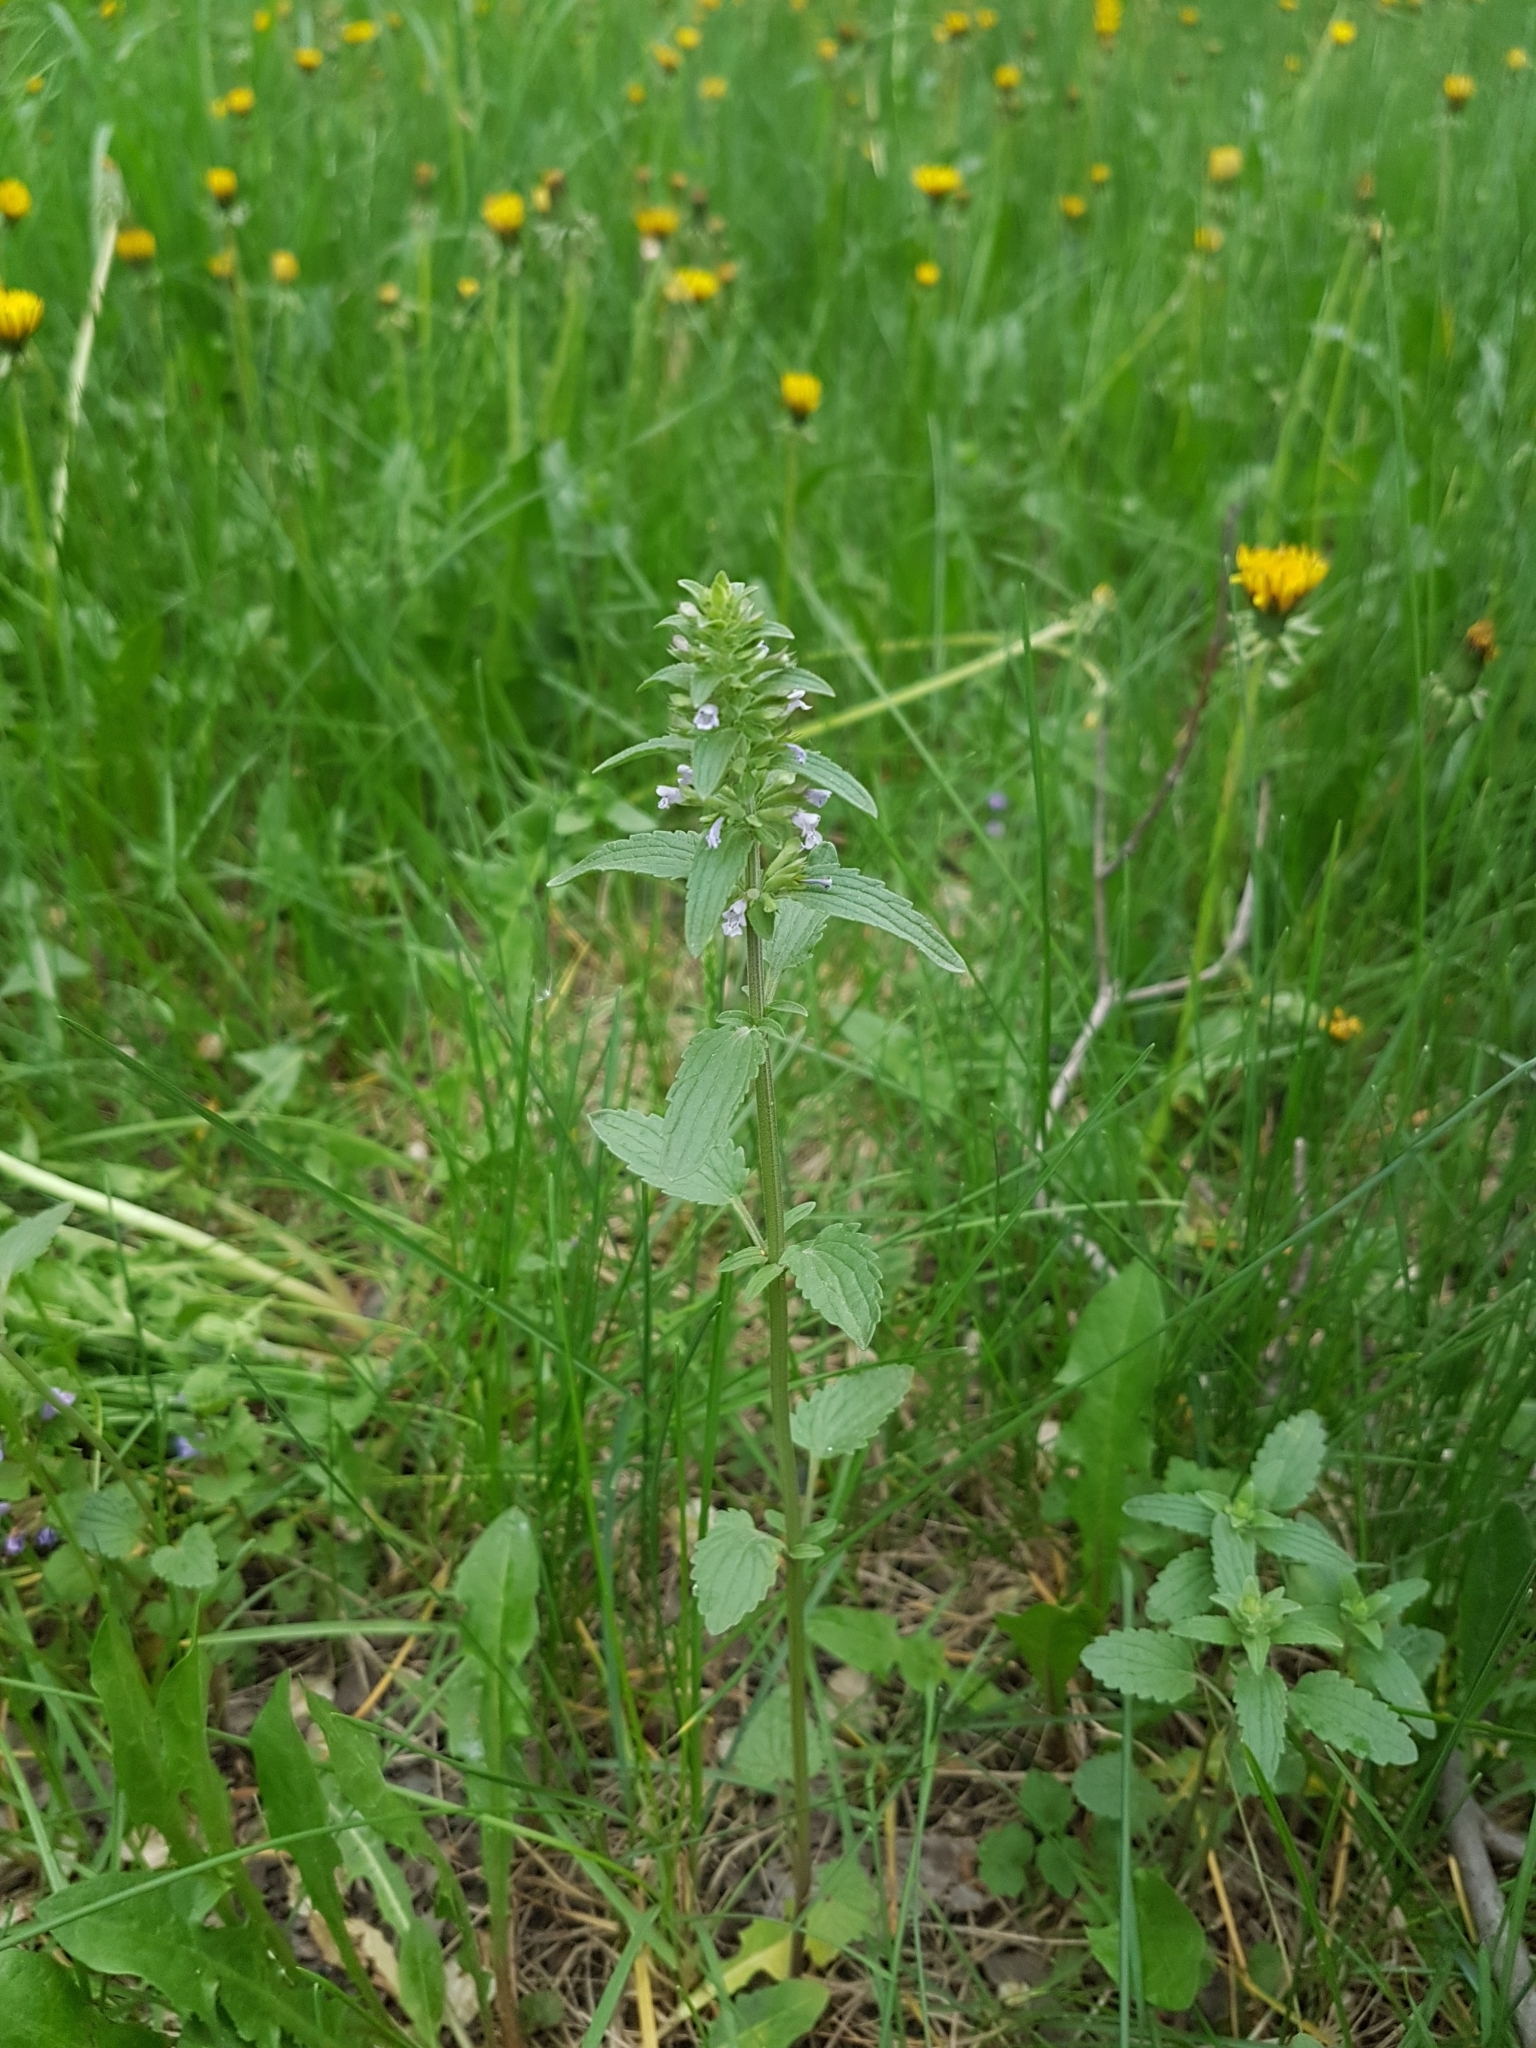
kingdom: Plantae
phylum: Tracheophyta
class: Magnoliopsida
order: Lamiales
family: Lamiaceae
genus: Dracocephalum
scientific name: Dracocephalum thymiflorum
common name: Thymeleaf dragonhead
